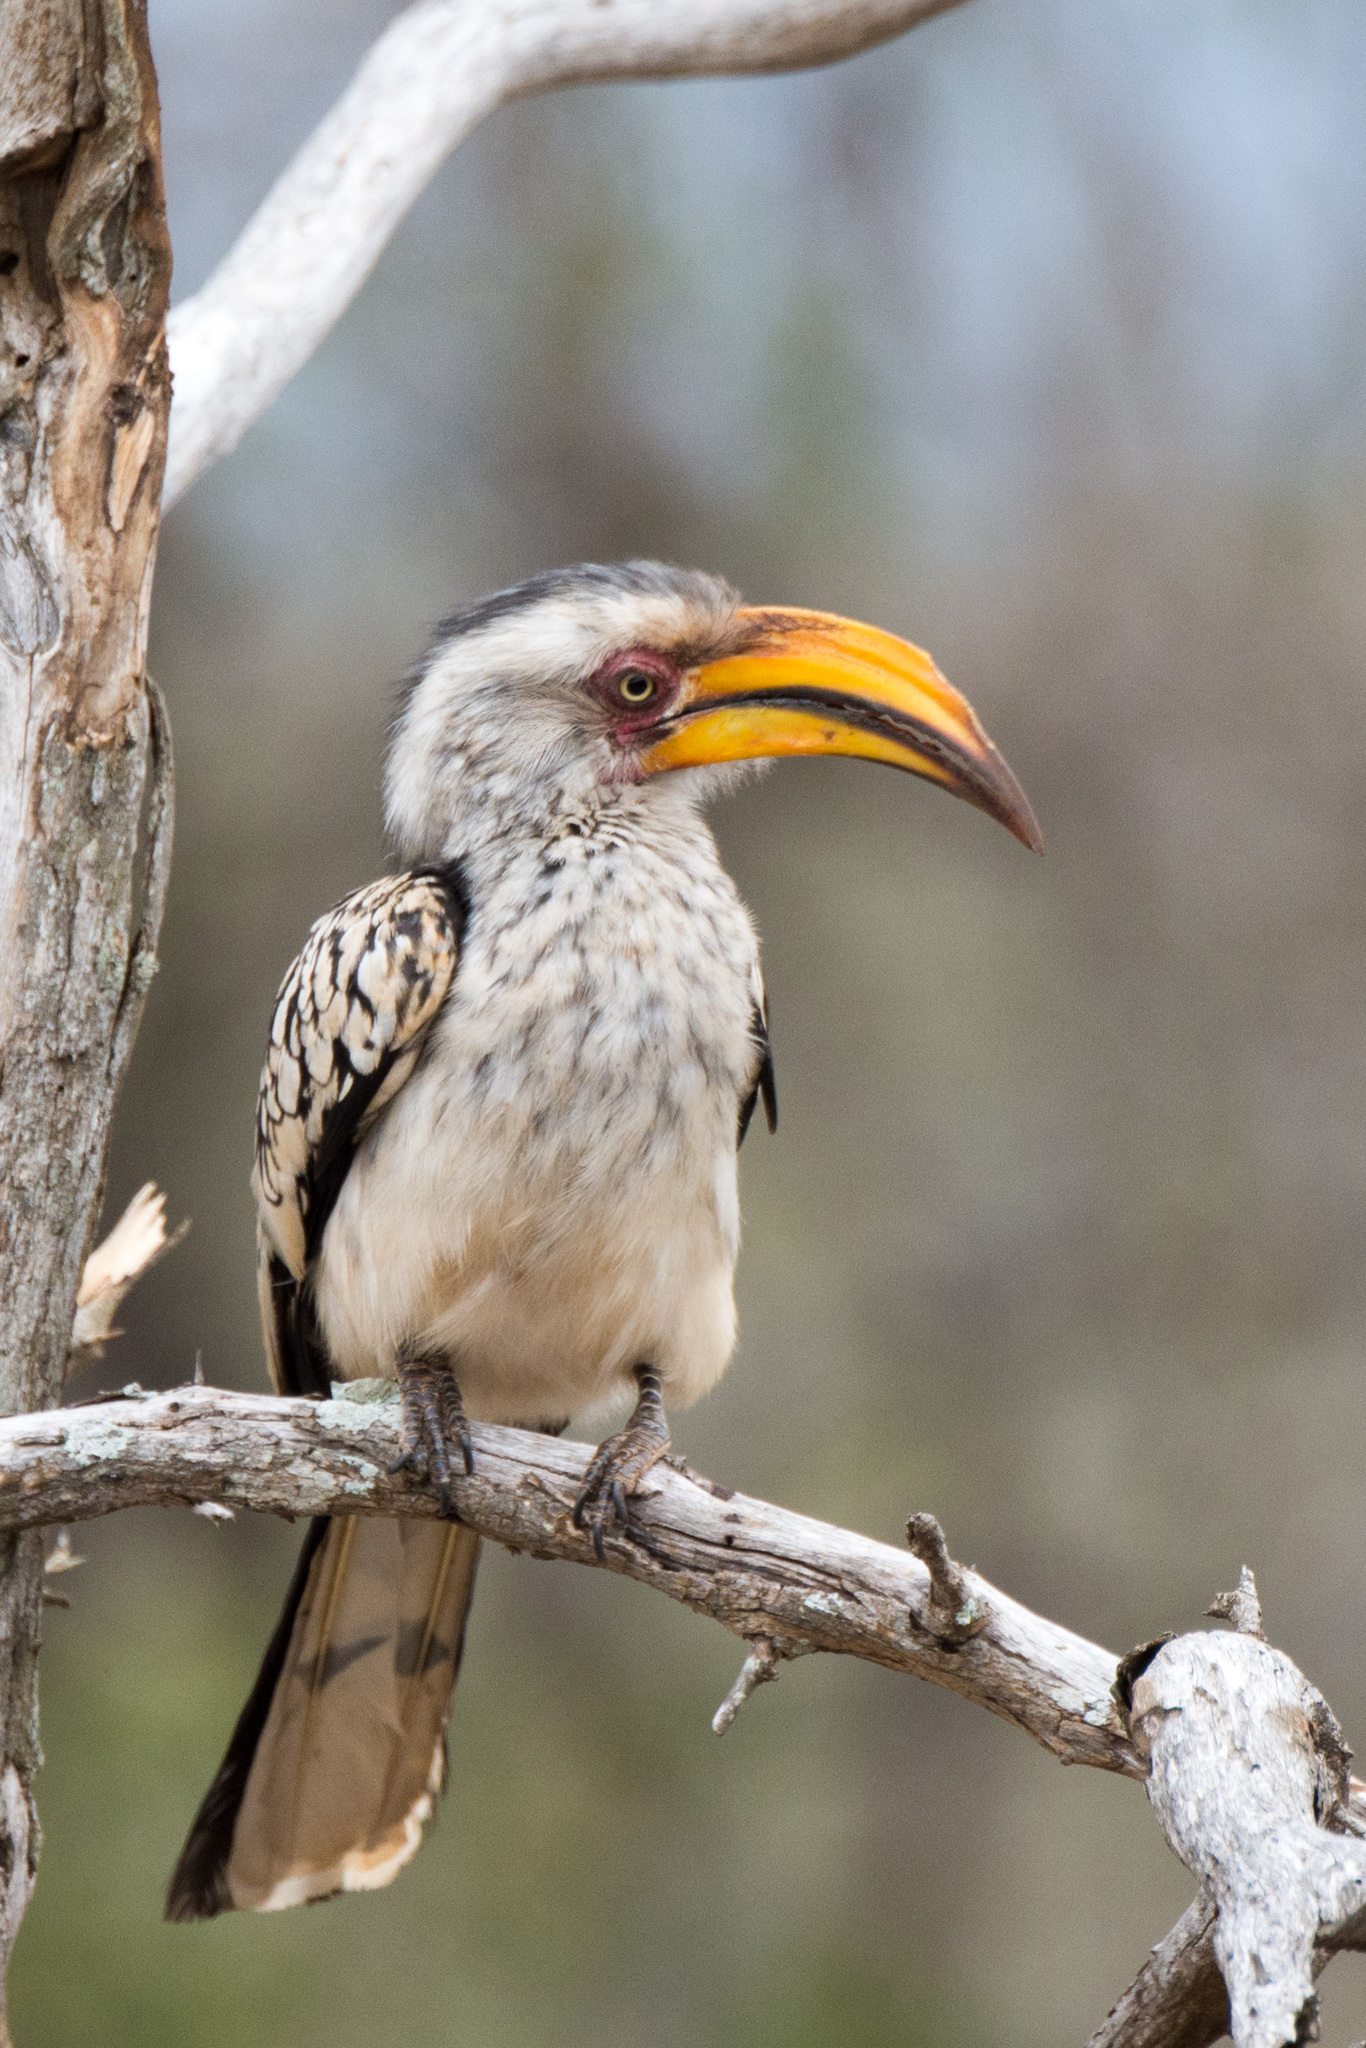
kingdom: Animalia
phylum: Chordata
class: Aves
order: Bucerotiformes
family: Bucerotidae
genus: Tockus
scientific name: Tockus leucomelas
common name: Southern yellow-billed hornbill
